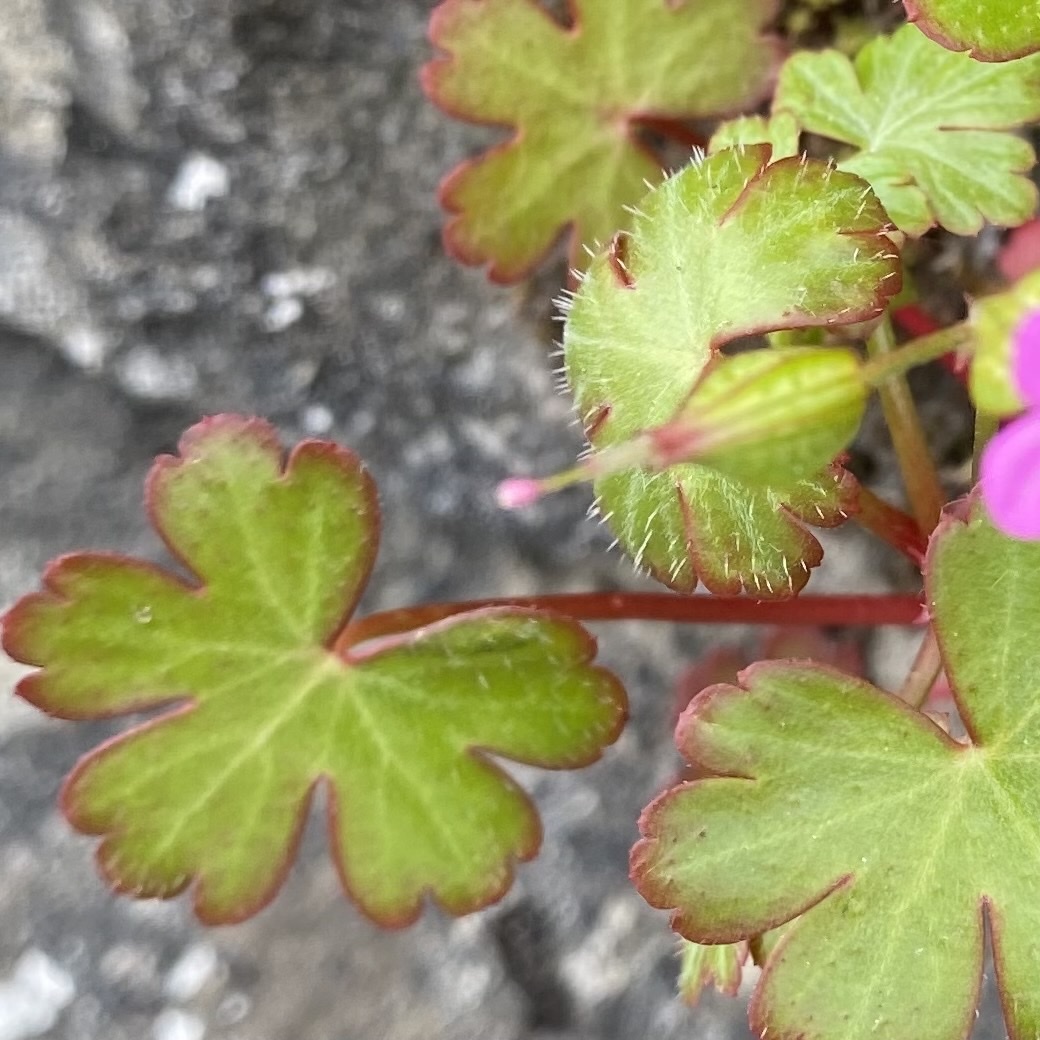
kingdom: Plantae
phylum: Tracheophyta
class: Magnoliopsida
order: Geraniales
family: Geraniaceae
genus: Geranium
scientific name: Geranium lucidum
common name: Shining crane's-bill
